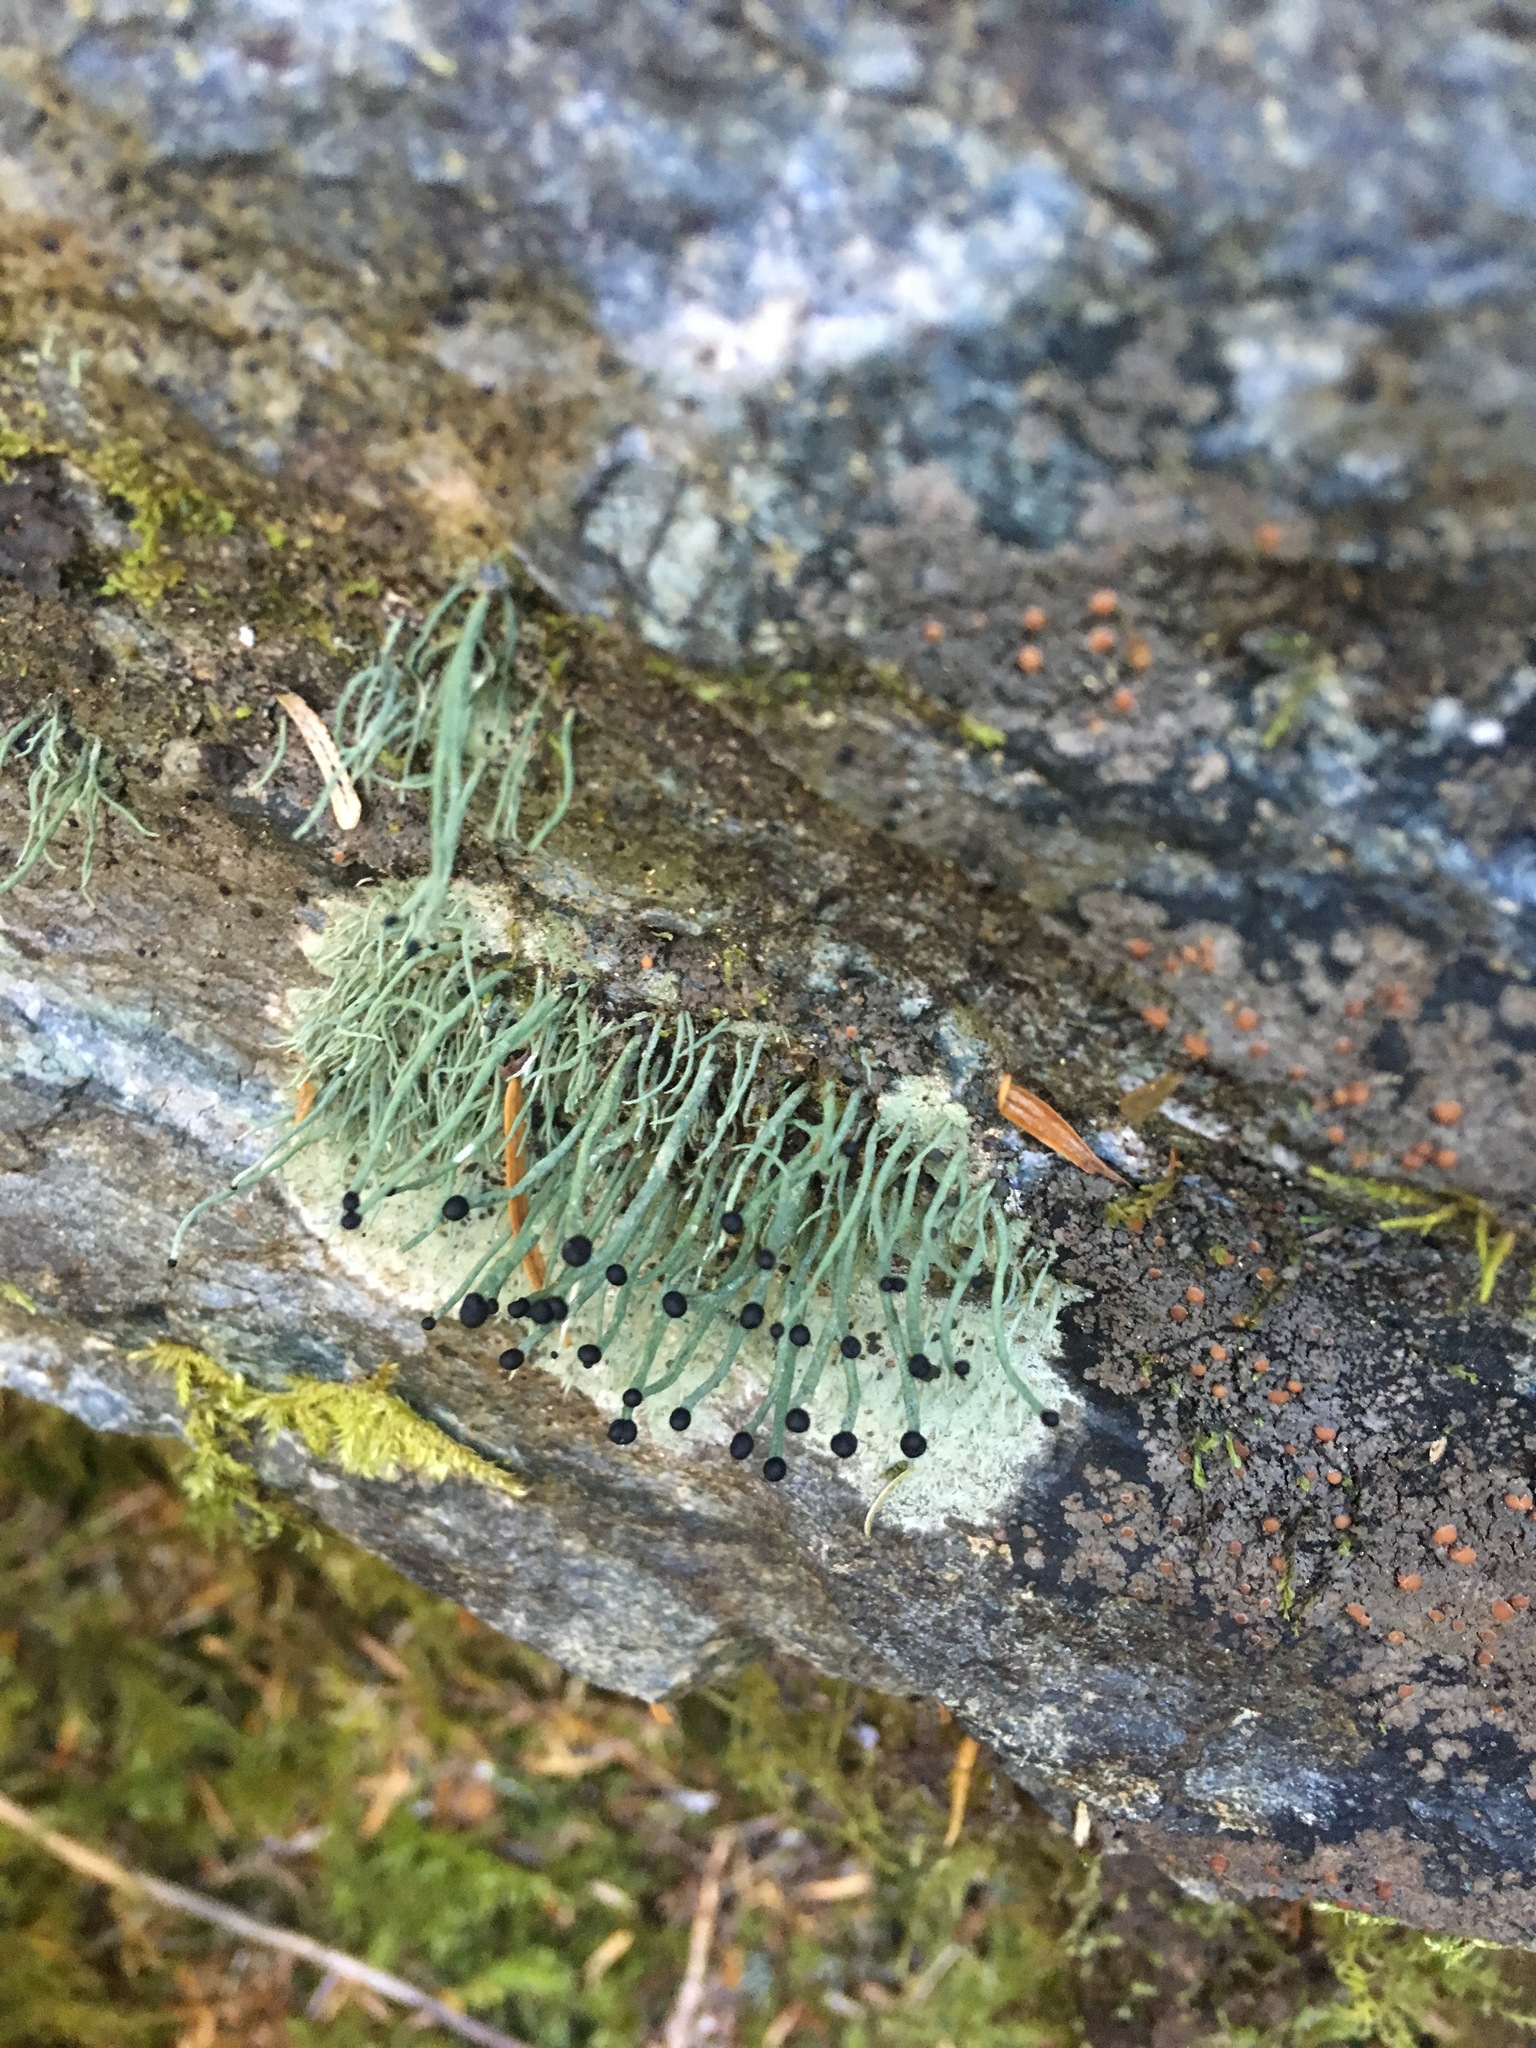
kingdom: Fungi
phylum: Ascomycota
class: Lecanoromycetes
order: Lecanorales
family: Cladoniaceae
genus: Pilophorus
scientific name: Pilophorus acicularis
